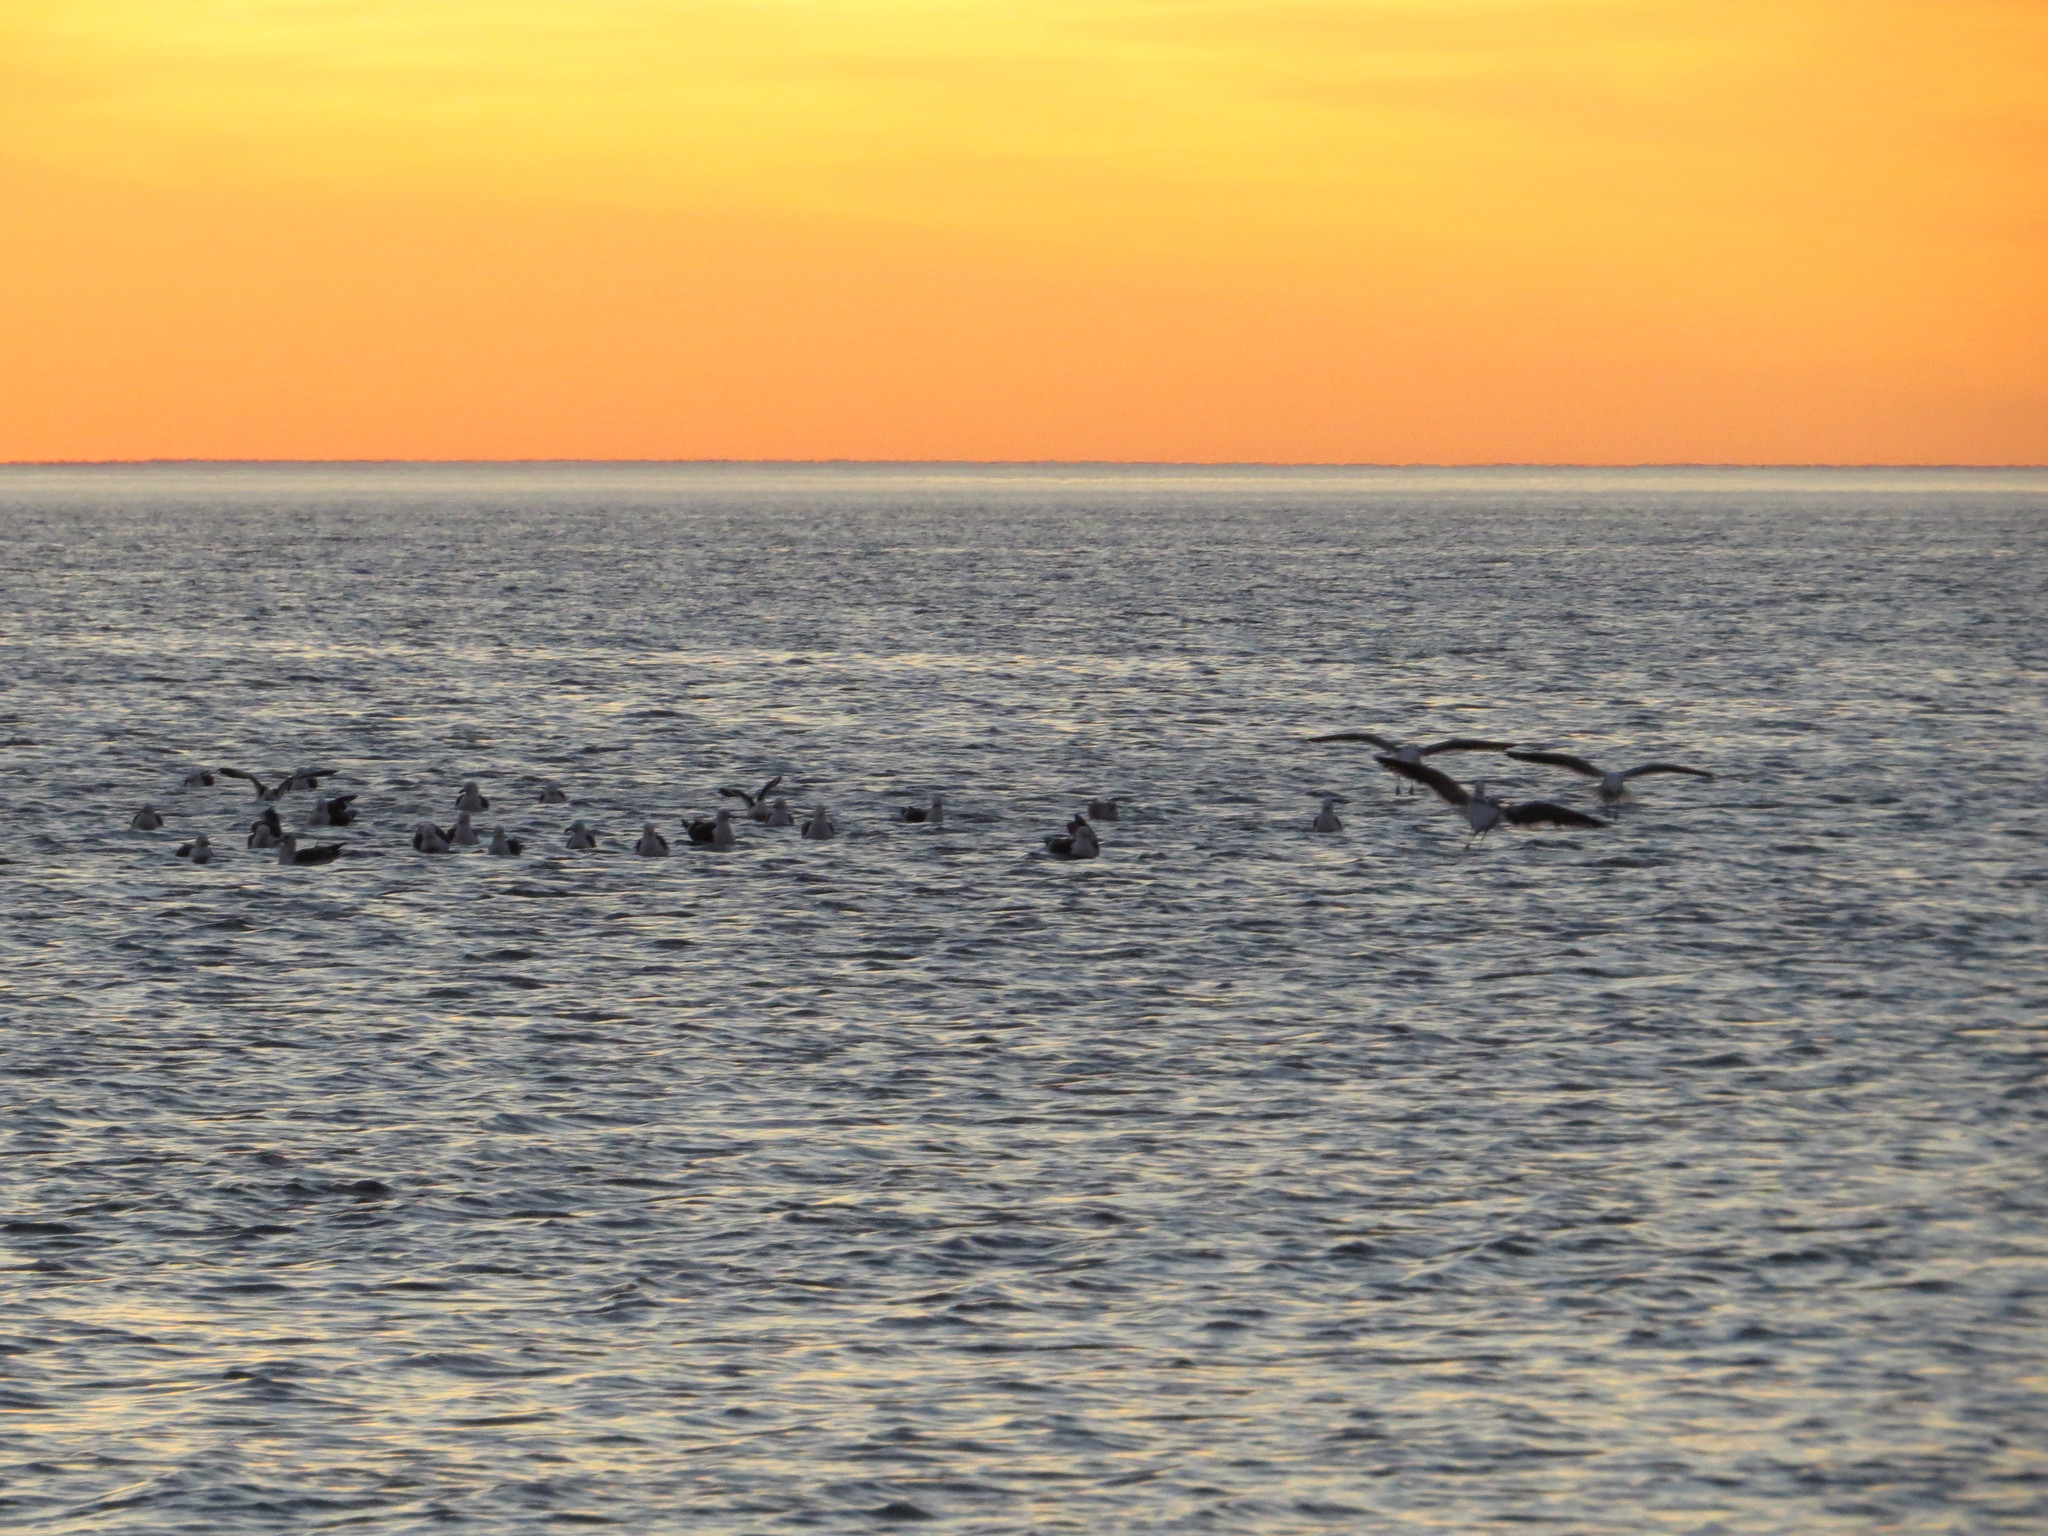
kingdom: Animalia
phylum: Chordata
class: Aves
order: Charadriiformes
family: Laridae
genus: Larus
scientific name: Larus dominicanus
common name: Kelp gull
